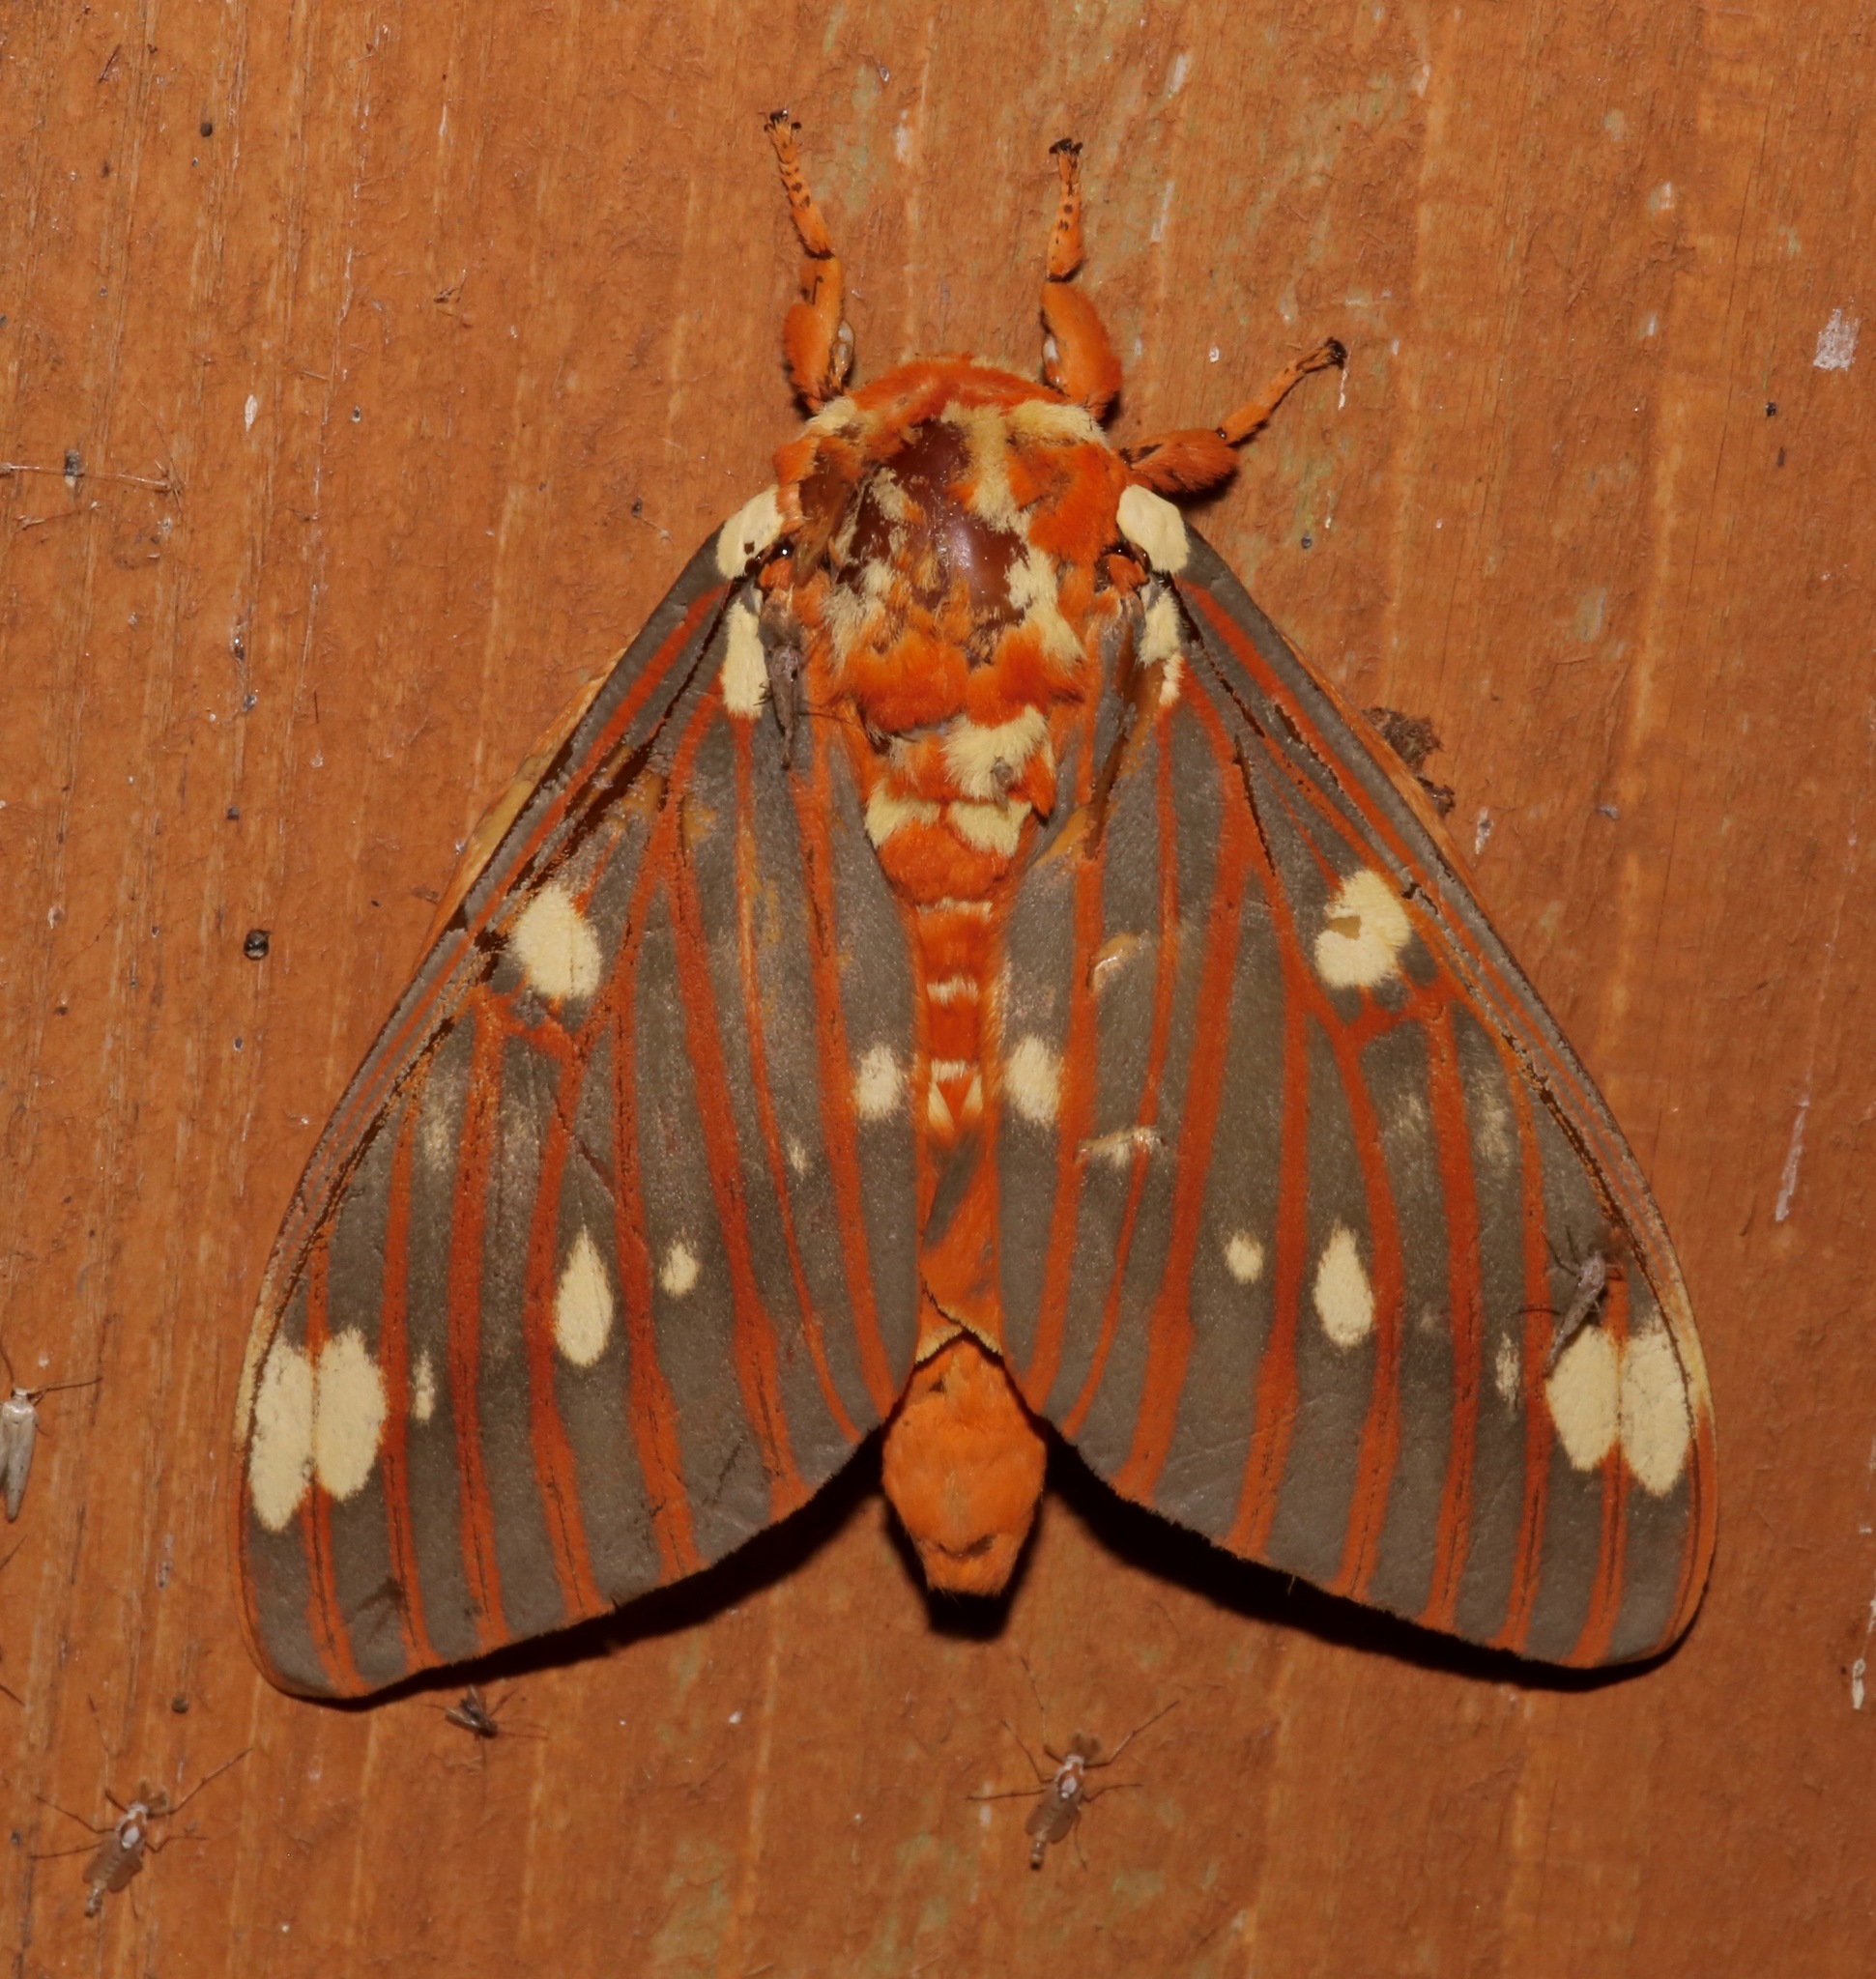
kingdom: Animalia
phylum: Arthropoda
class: Insecta
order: Lepidoptera
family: Saturniidae
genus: Citheronia
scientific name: Citheronia regalis
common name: Hickory horned devil
